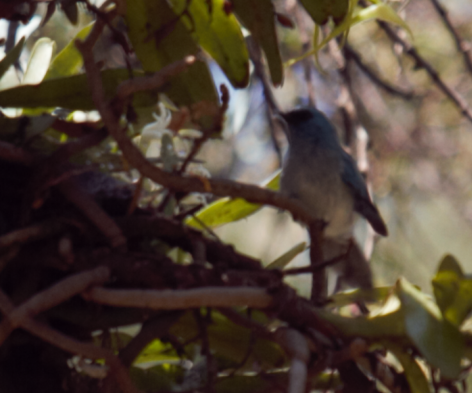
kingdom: Animalia
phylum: Chordata
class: Aves
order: Passeriformes
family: Stenostiridae
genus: Elminia
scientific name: Elminia longicauda
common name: African blue flycatcher
